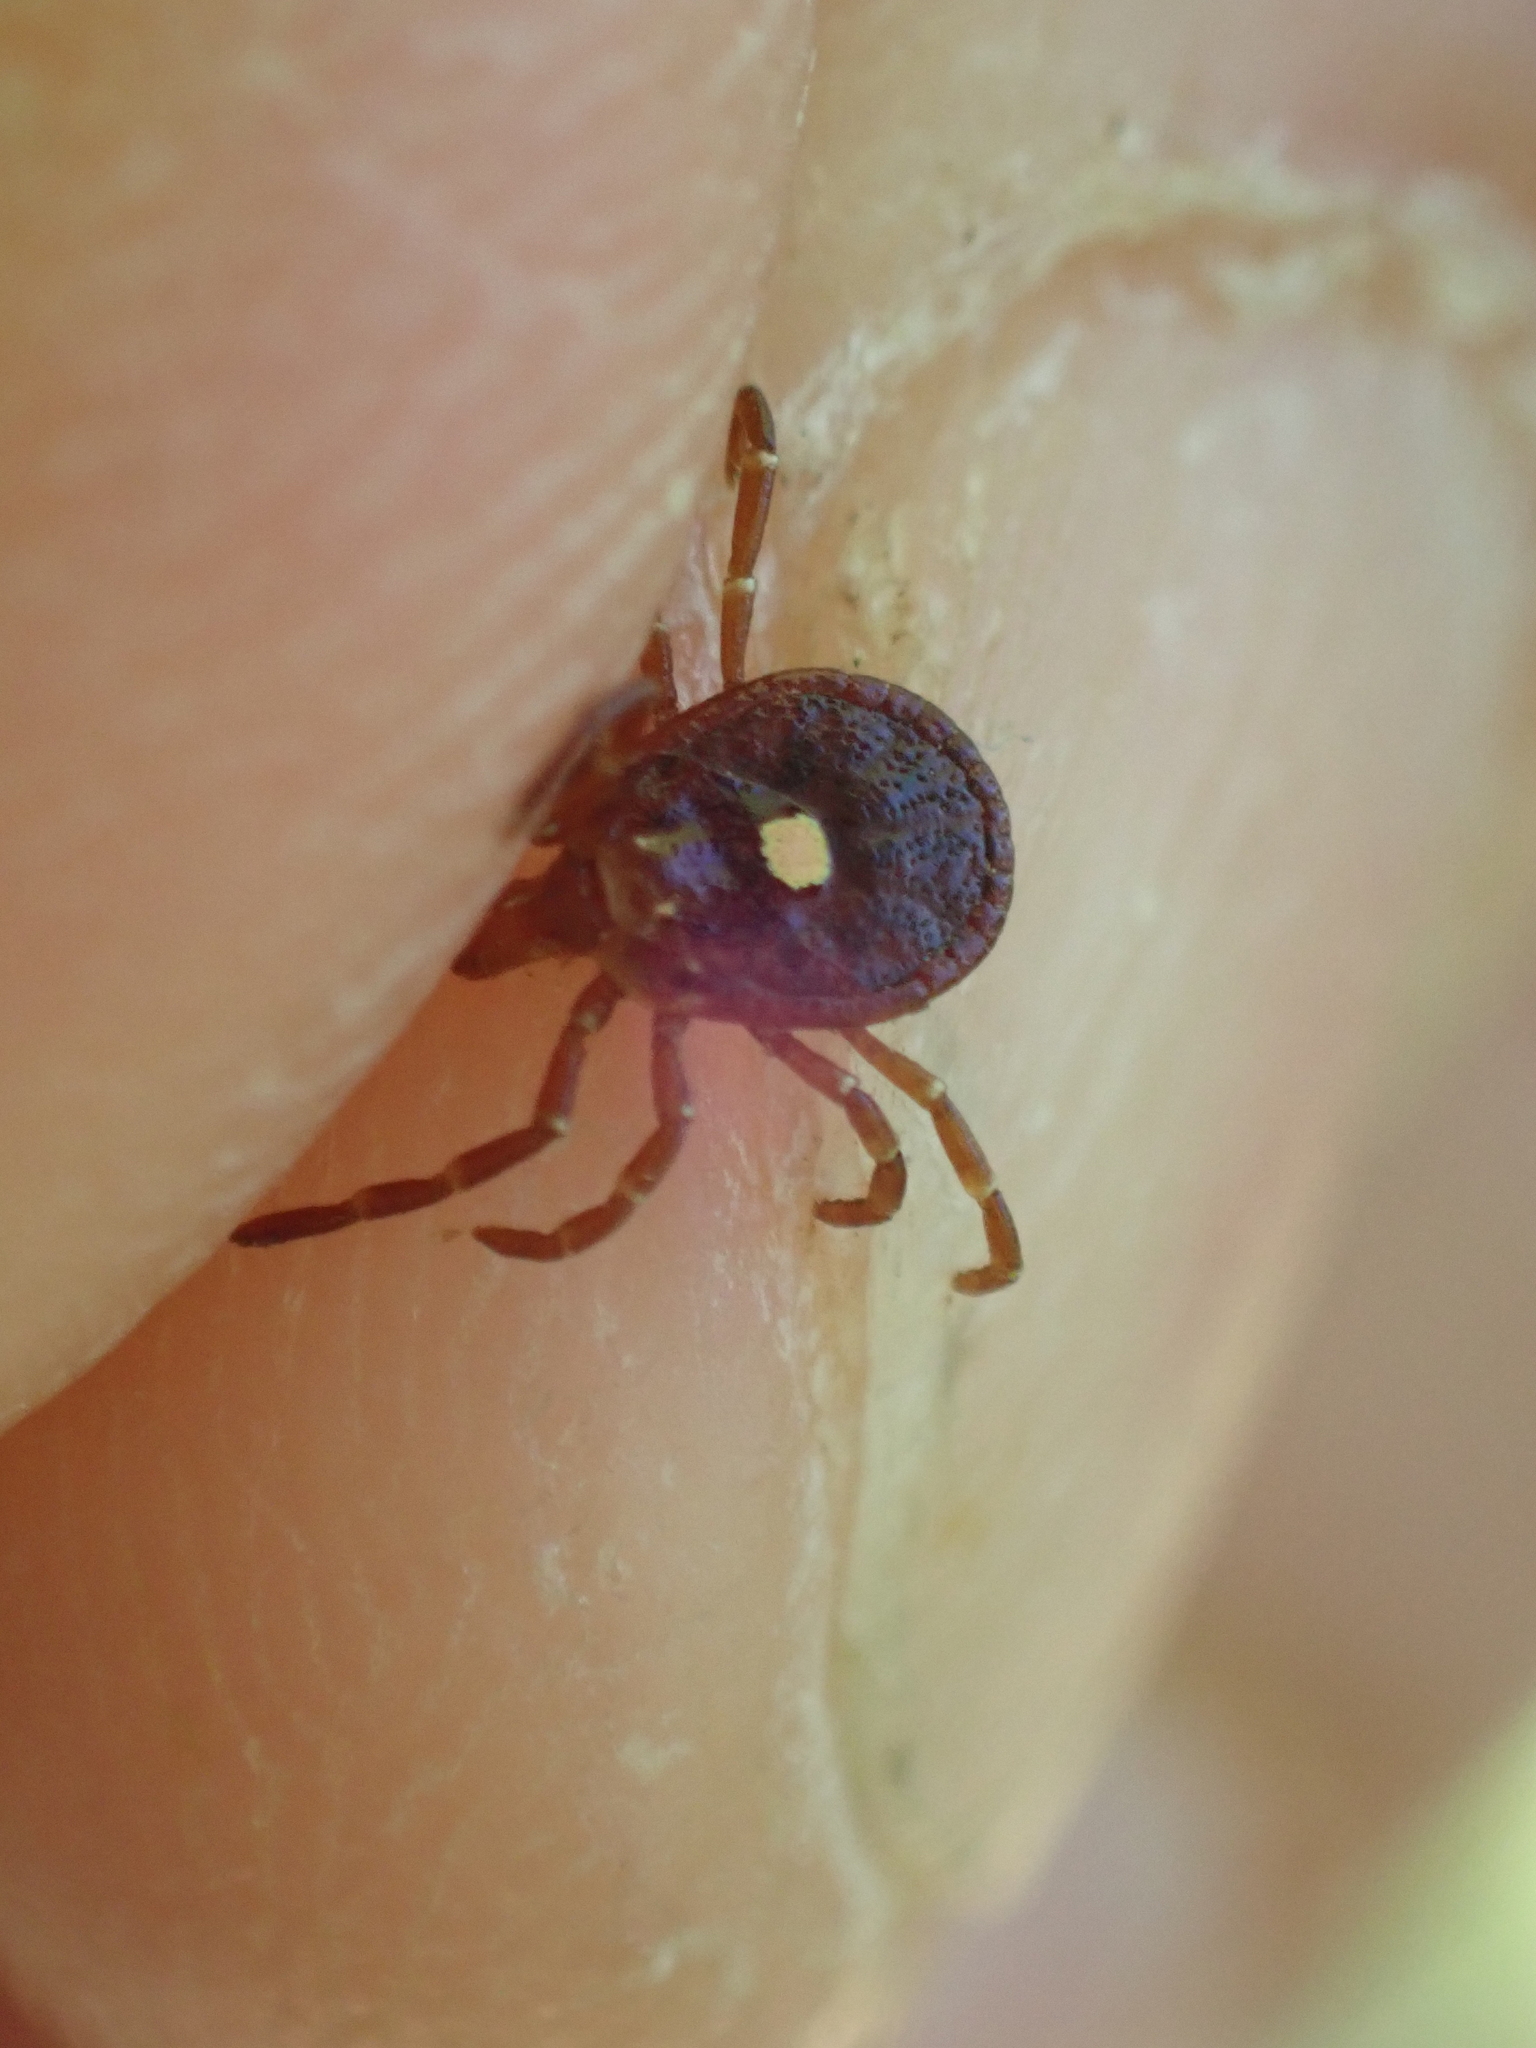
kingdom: Animalia
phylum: Arthropoda
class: Arachnida
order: Ixodida
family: Ixodidae
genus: Amblyomma
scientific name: Amblyomma americanum
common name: Lone star tick
